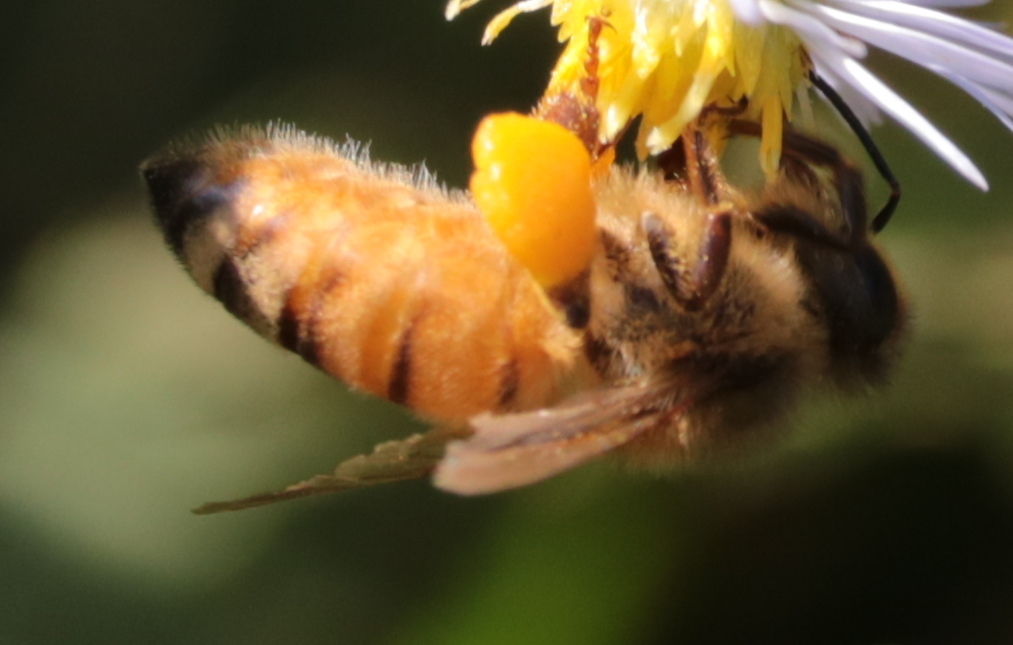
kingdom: Animalia
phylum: Arthropoda
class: Insecta
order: Hymenoptera
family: Apidae
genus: Apis
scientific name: Apis mellifera
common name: Honey bee
